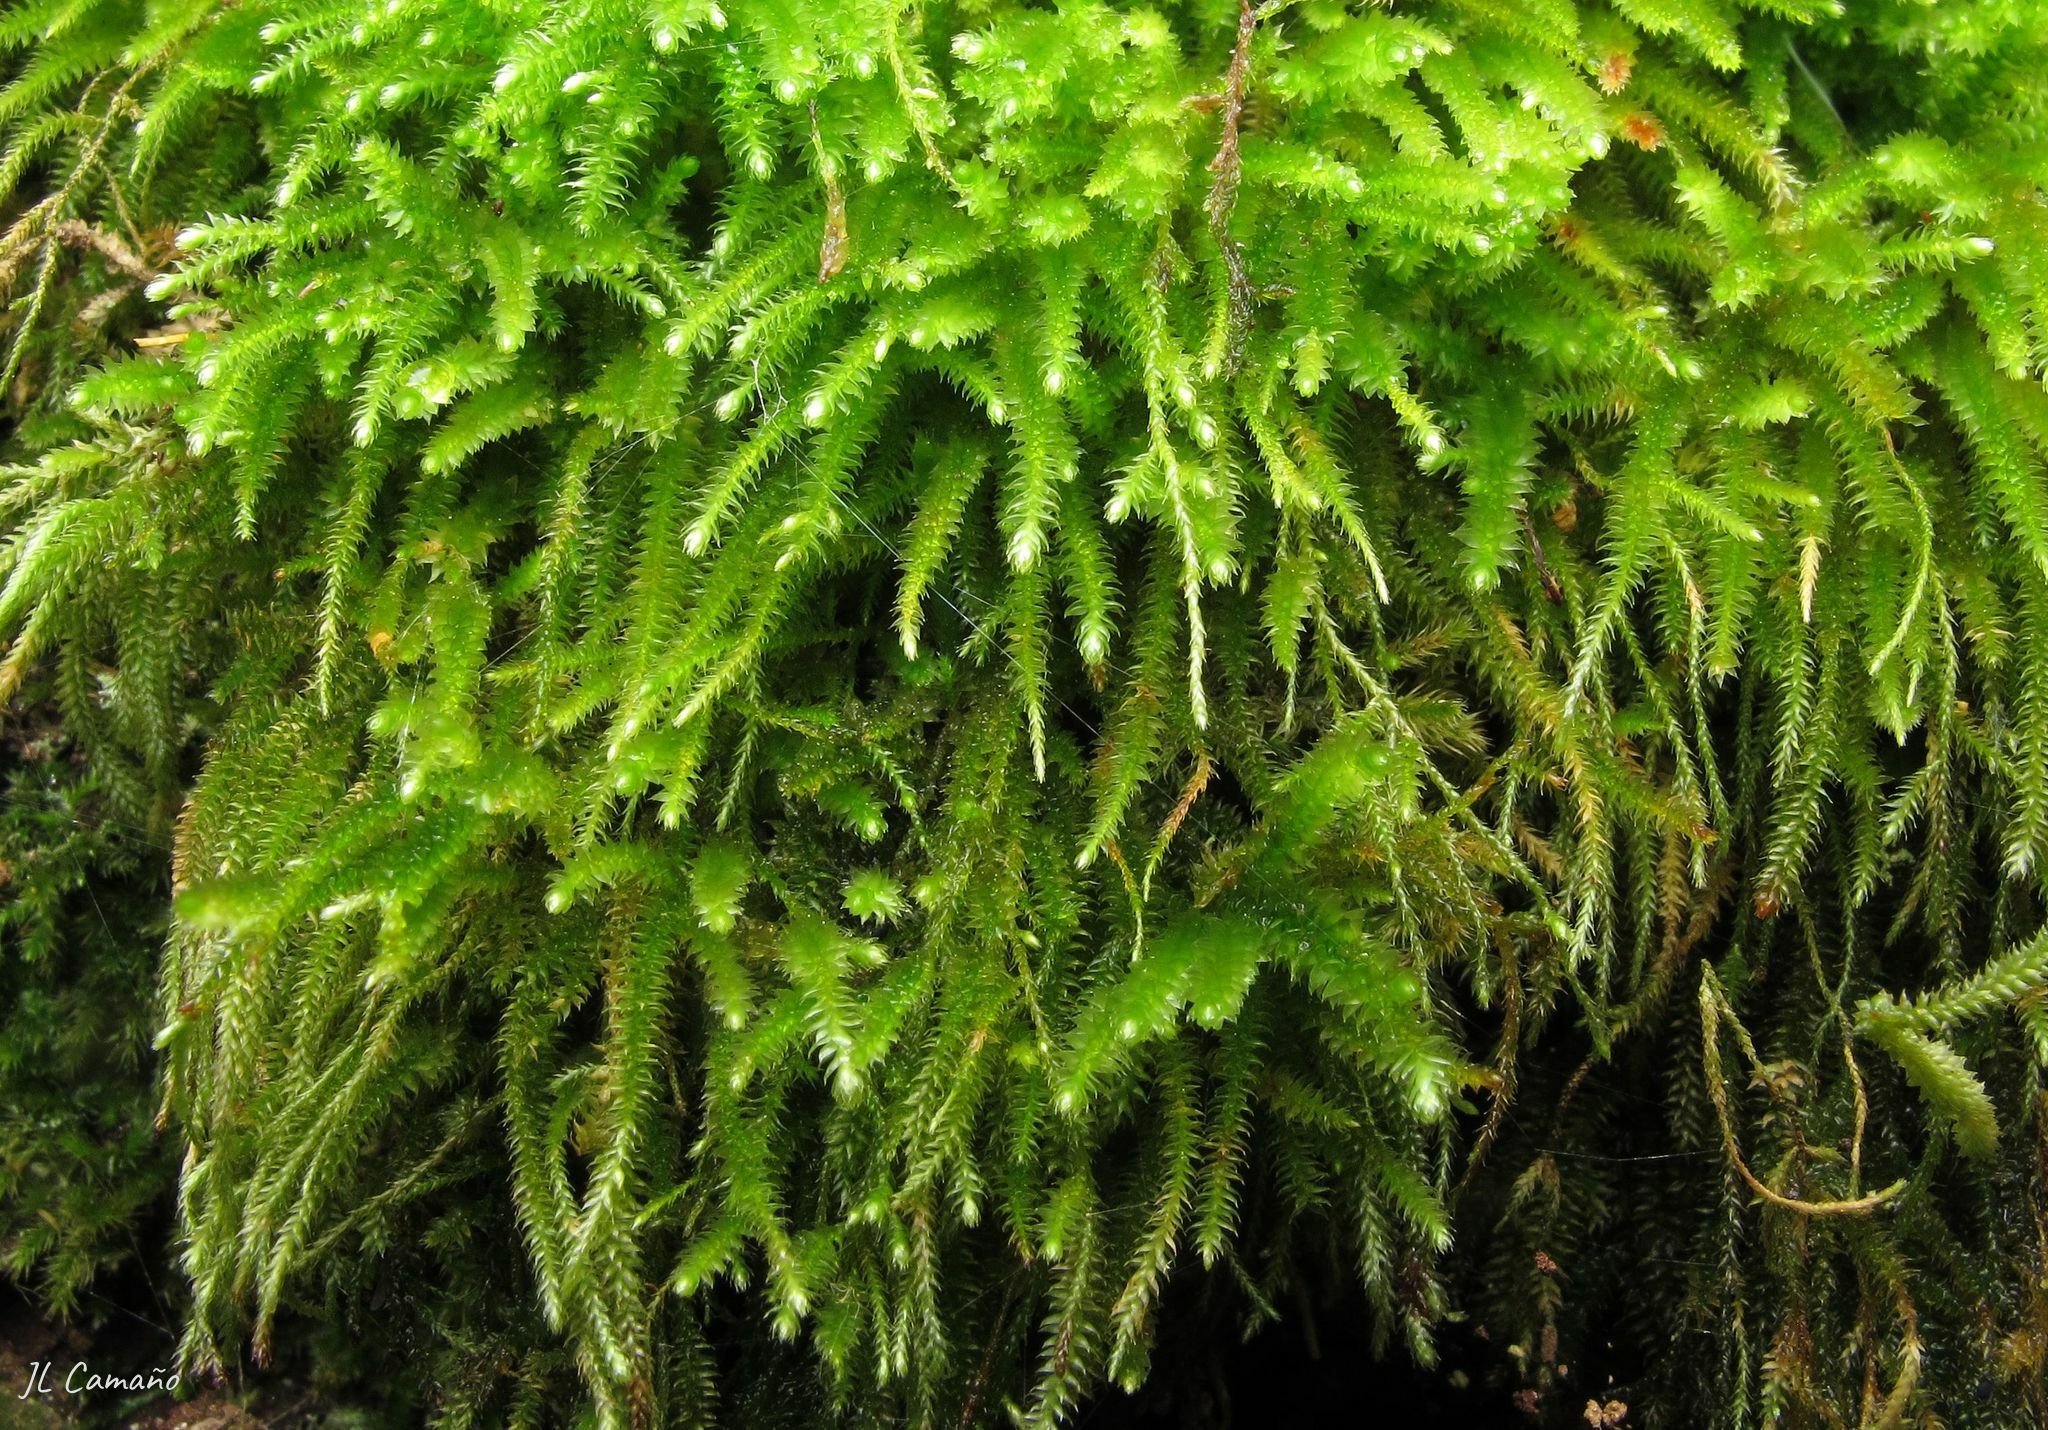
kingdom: Plantae
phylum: Bryophyta
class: Bryopsida
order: Hypnales
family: Lembophyllaceae
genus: Nogopterium
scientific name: Nogopterium gracile
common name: Bird's-foot wing-moss
